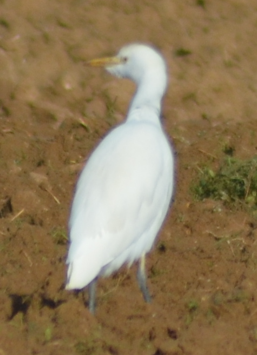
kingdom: Animalia
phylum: Chordata
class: Aves
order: Pelecaniformes
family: Ardeidae
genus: Bubulcus
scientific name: Bubulcus ibis
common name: Cattle egret
